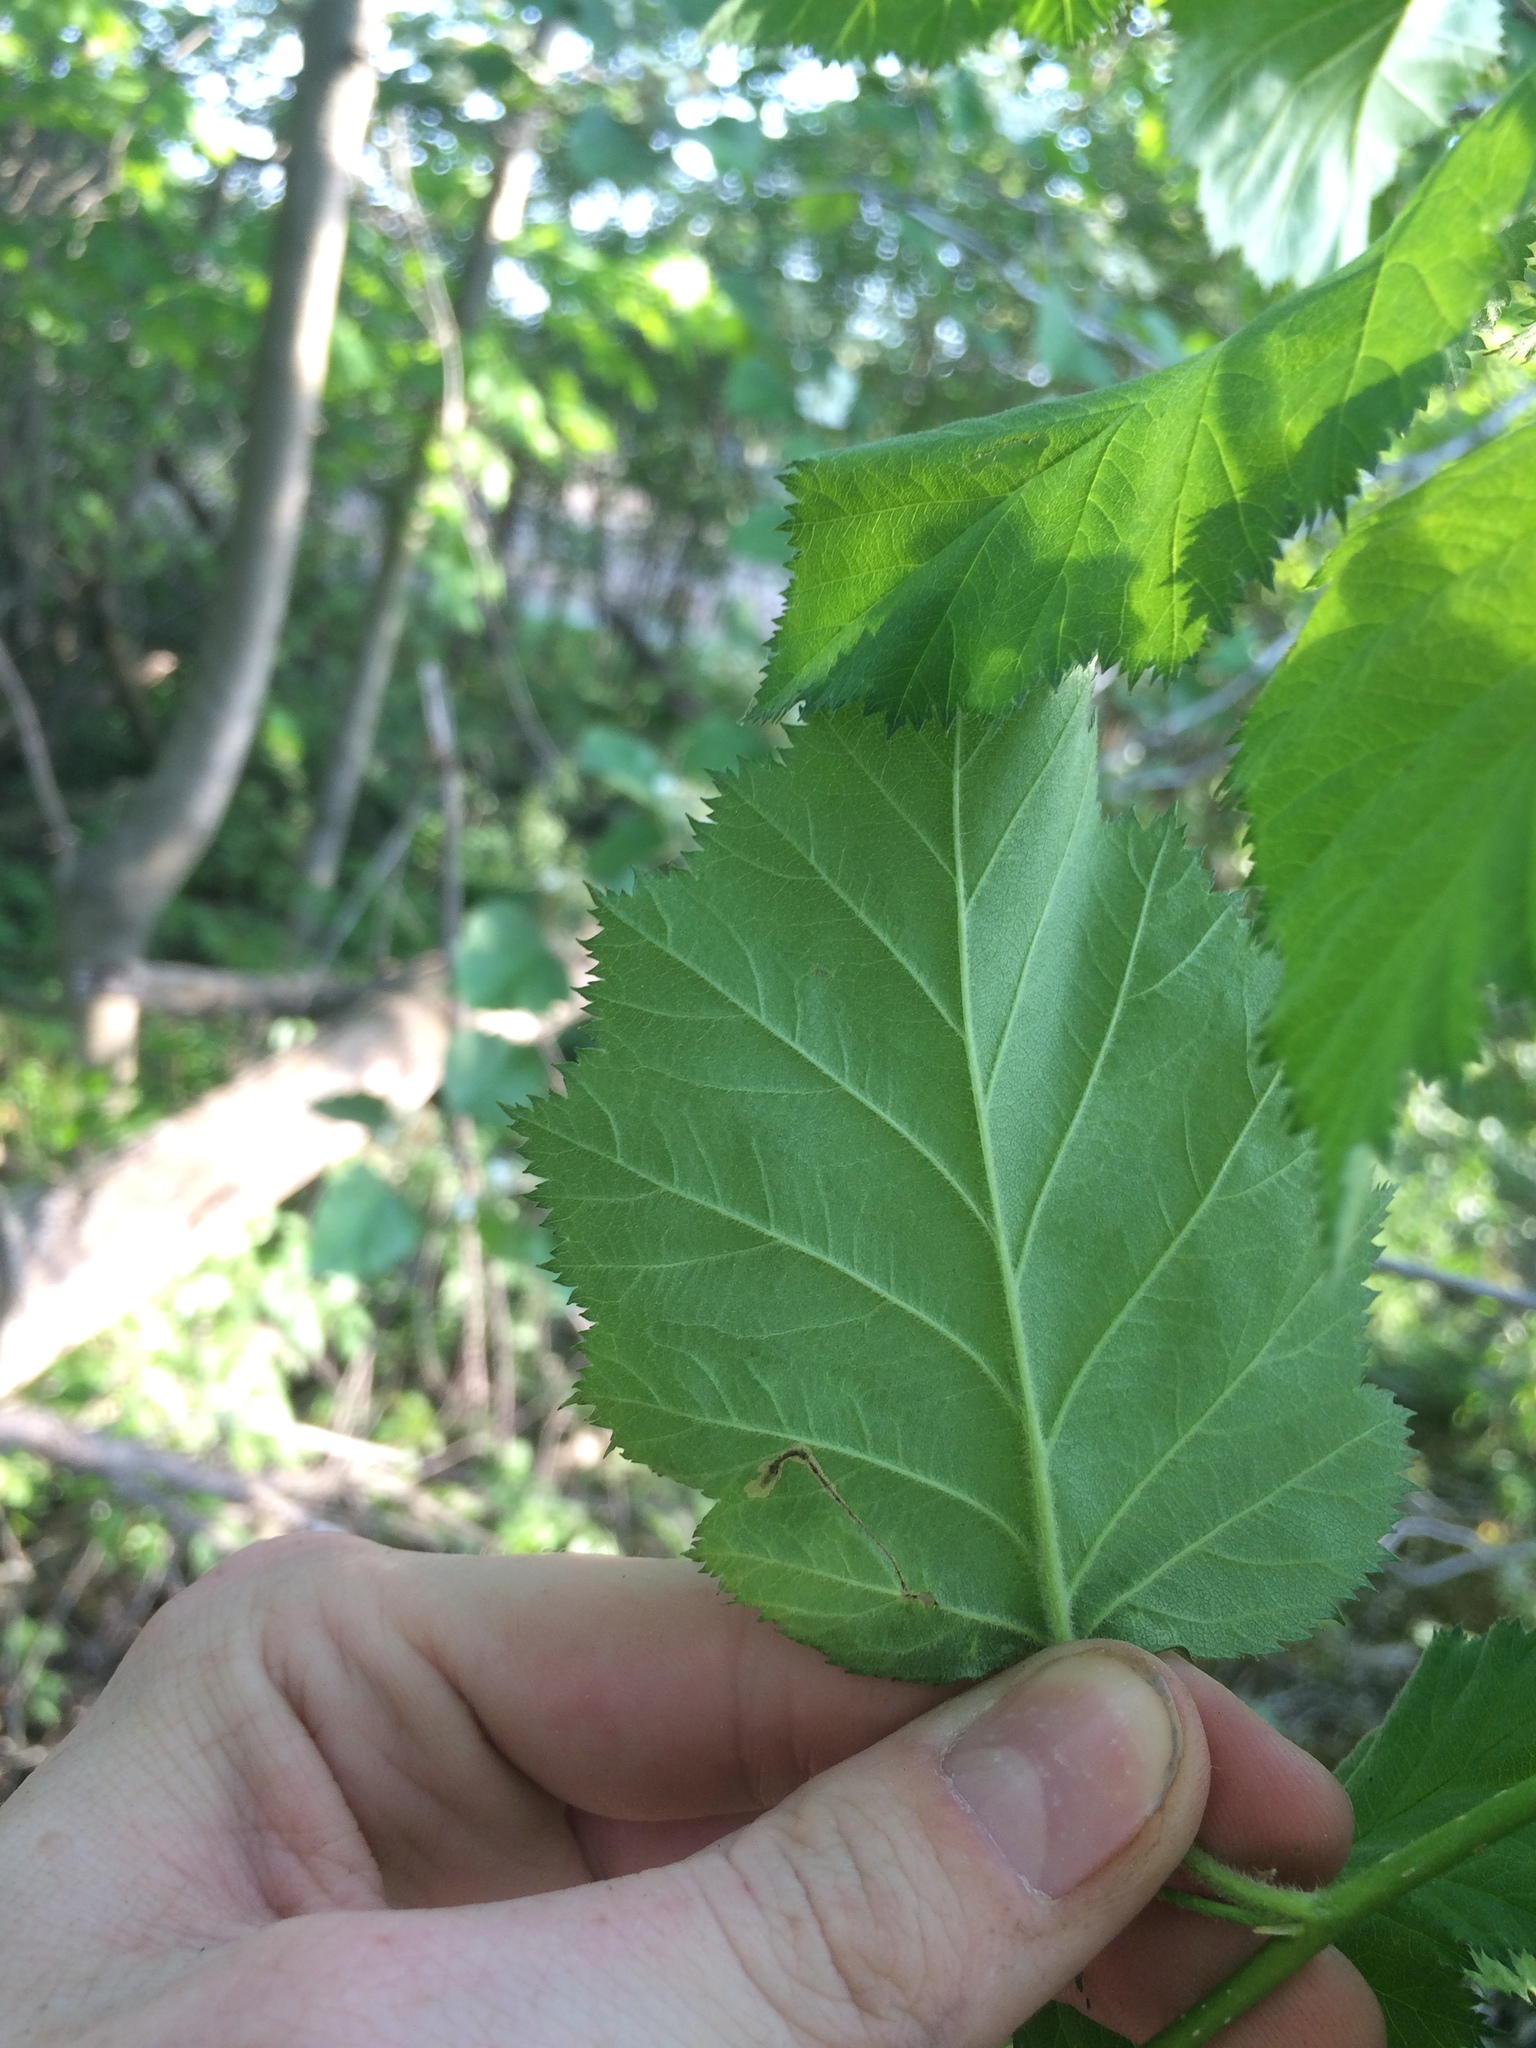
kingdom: Plantae
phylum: Tracheophyta
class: Magnoliopsida
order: Rosales
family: Rosaceae
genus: Crataegus
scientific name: Crataegus submollis
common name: Hairy cockspurthorn
